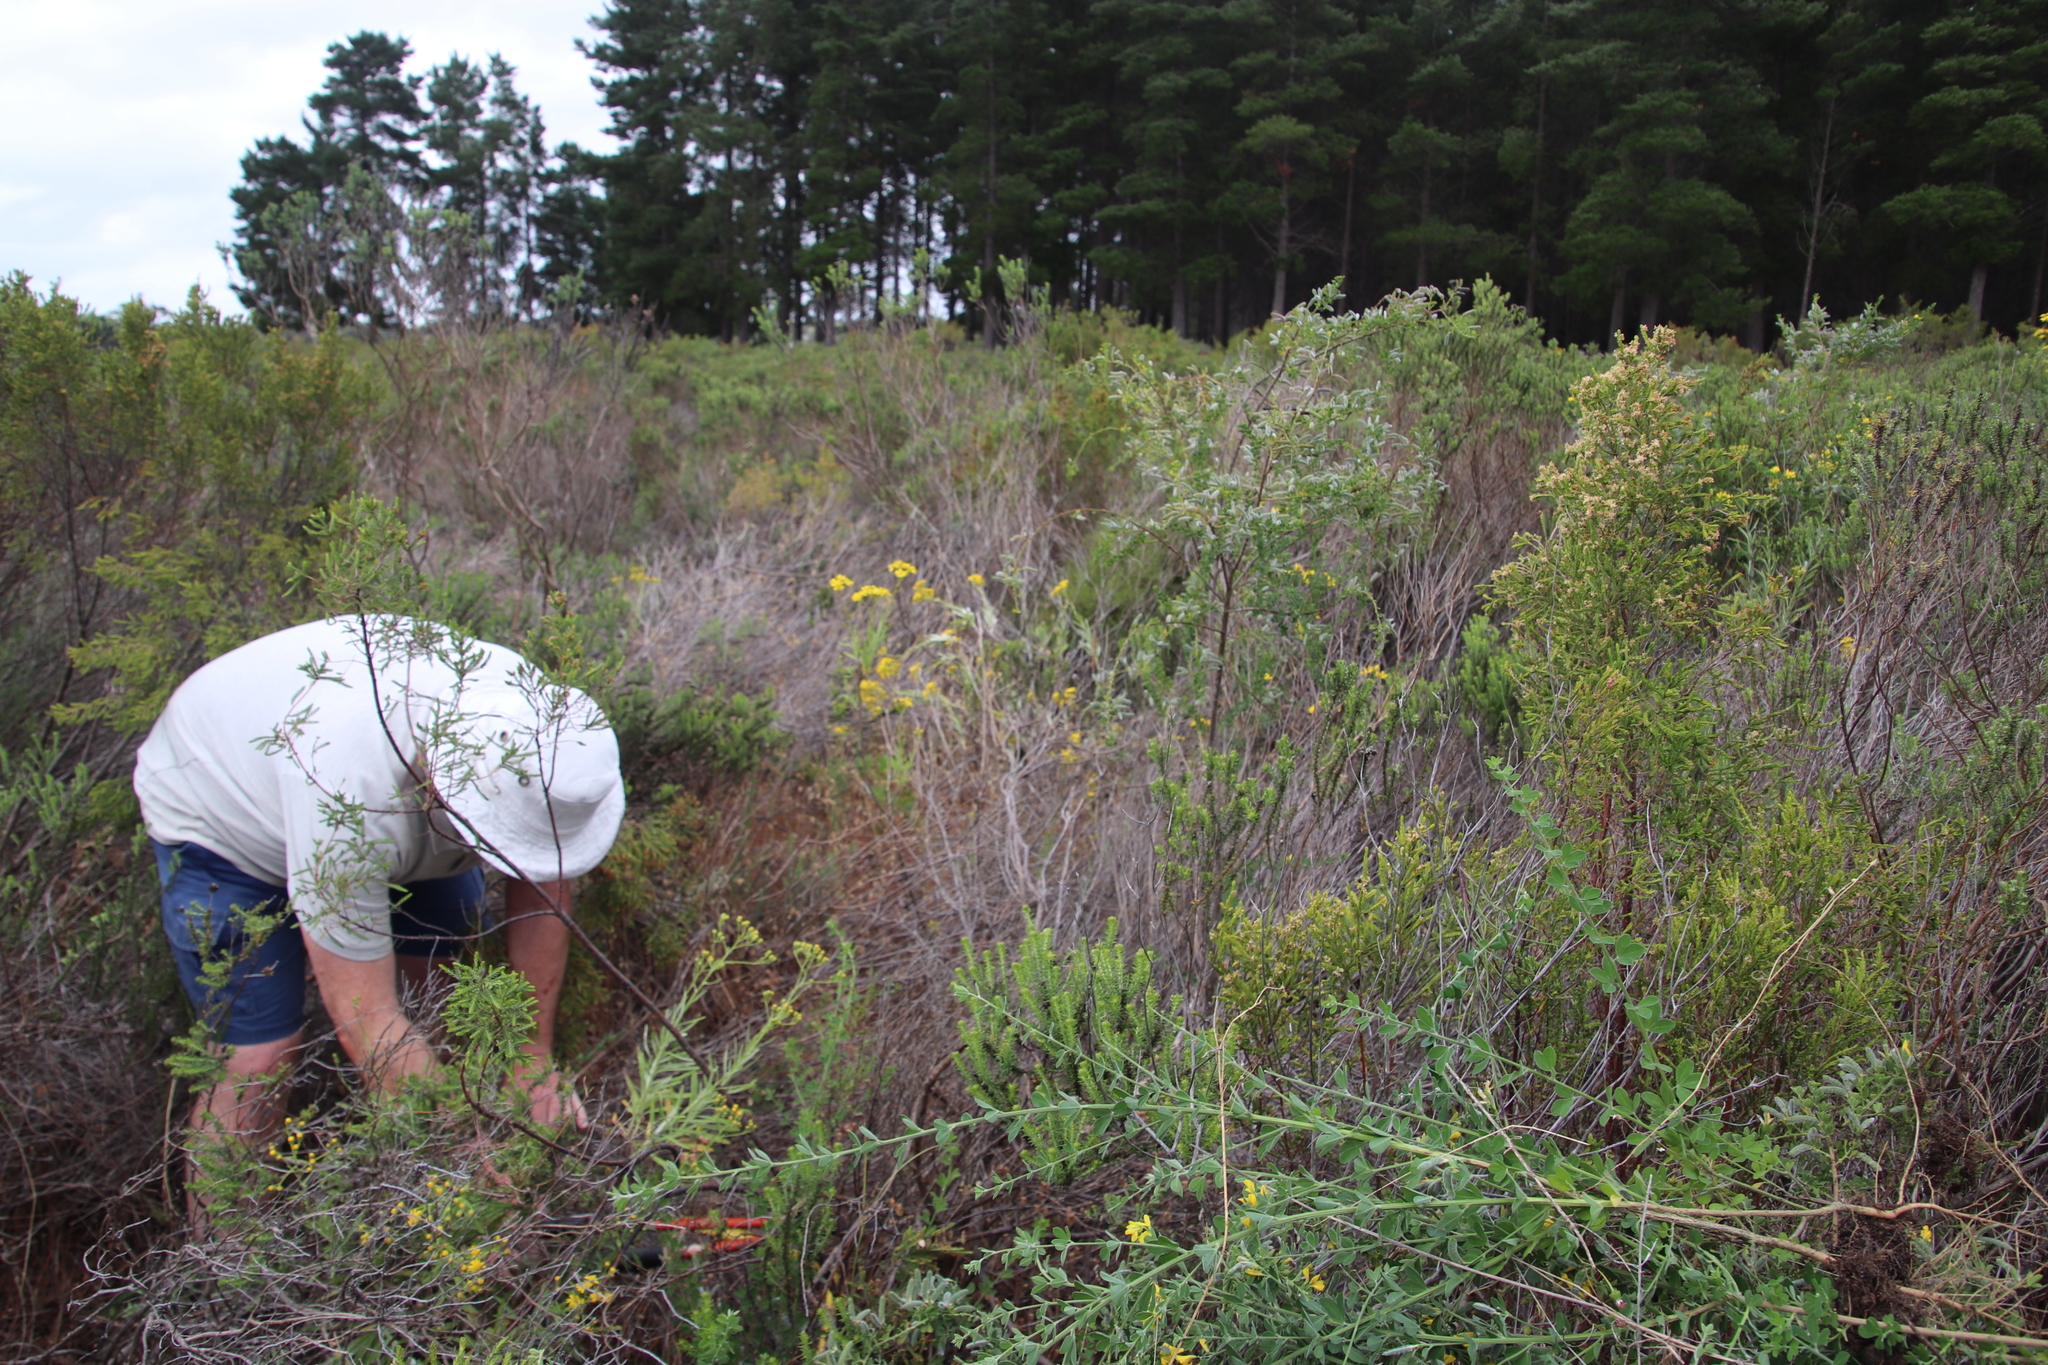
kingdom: Plantae
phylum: Tracheophyta
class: Magnoliopsida
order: Fabales
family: Fabaceae
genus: Genista
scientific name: Genista monspessulana
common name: Montpellier broom
